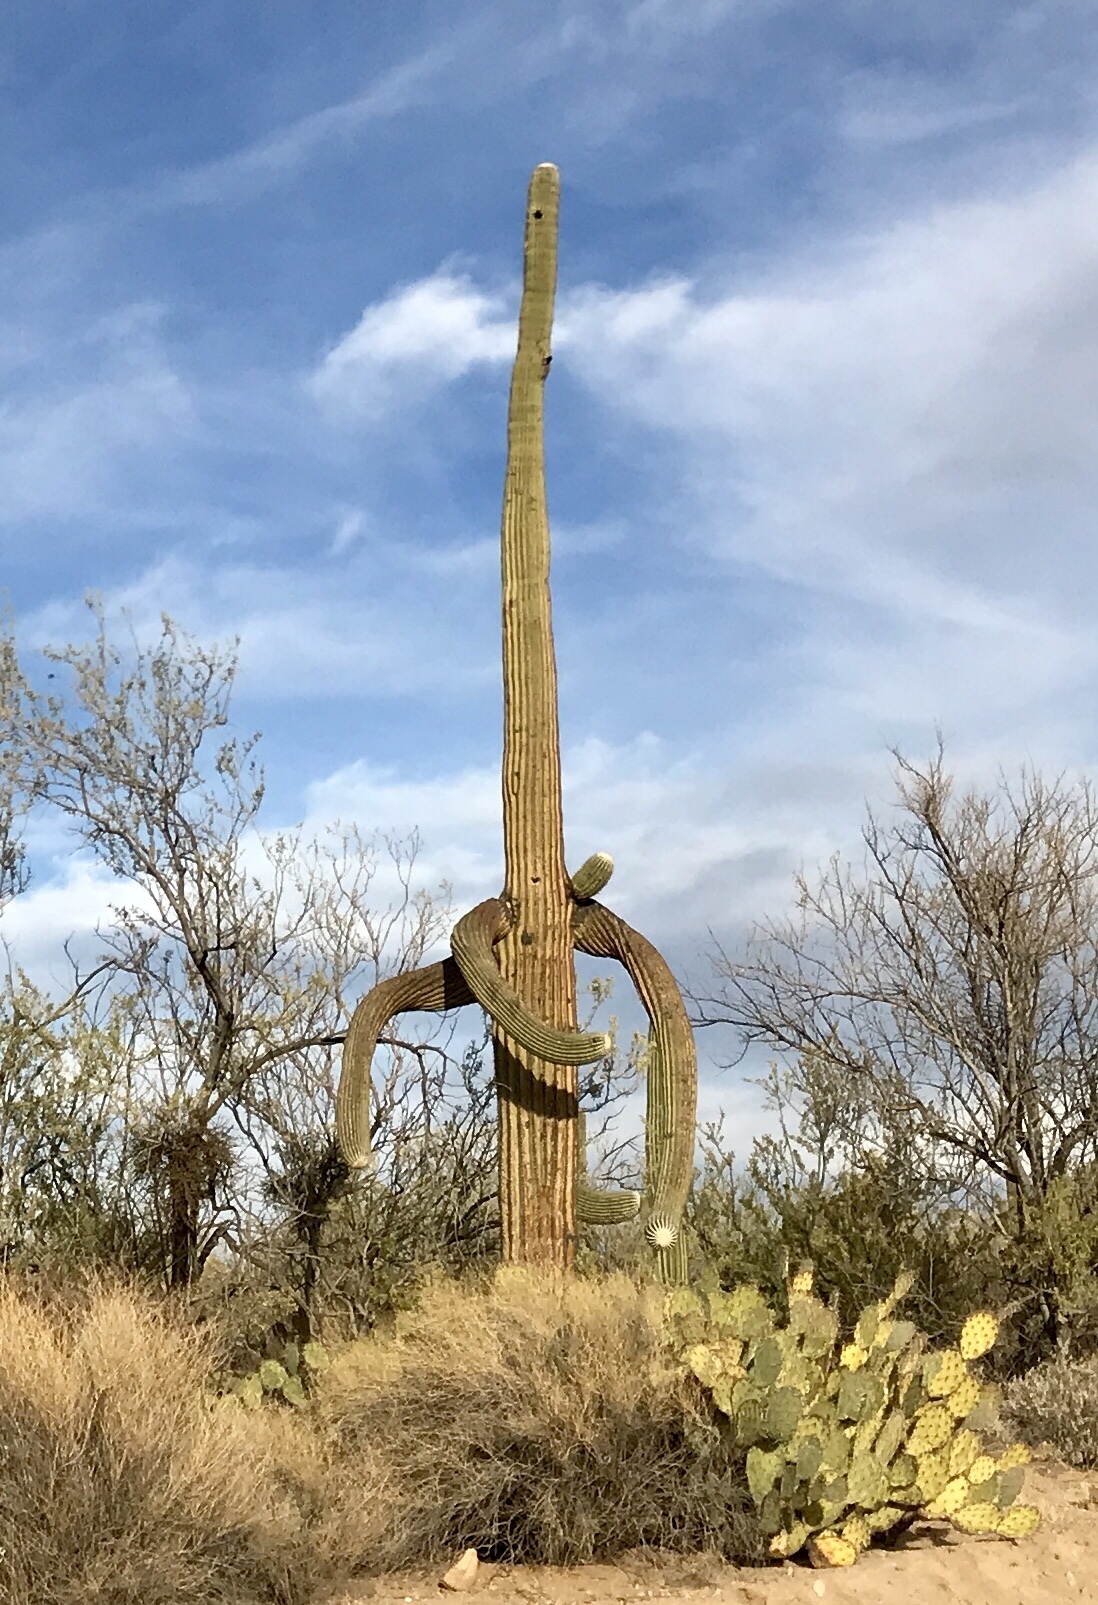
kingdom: Plantae
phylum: Tracheophyta
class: Magnoliopsida
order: Caryophyllales
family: Cactaceae
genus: Carnegiea
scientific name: Carnegiea gigantea
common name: Saguaro
